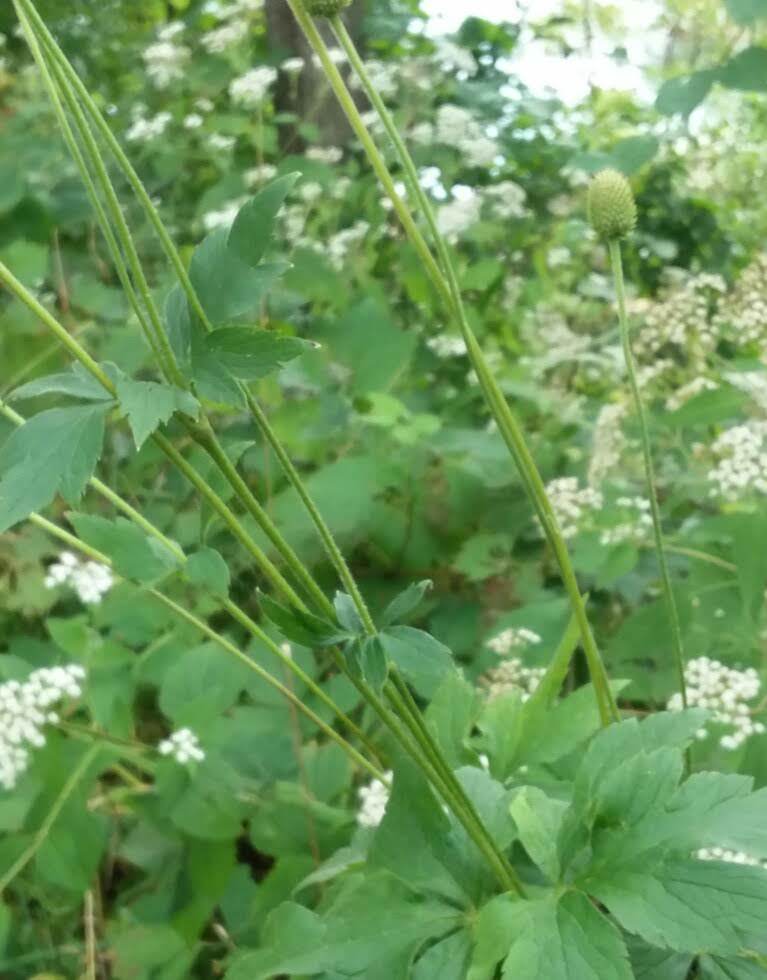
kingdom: Plantae
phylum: Tracheophyta
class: Magnoliopsida
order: Ranunculales
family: Ranunculaceae
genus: Anemone
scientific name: Anemone virginiana
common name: Tall anemone
